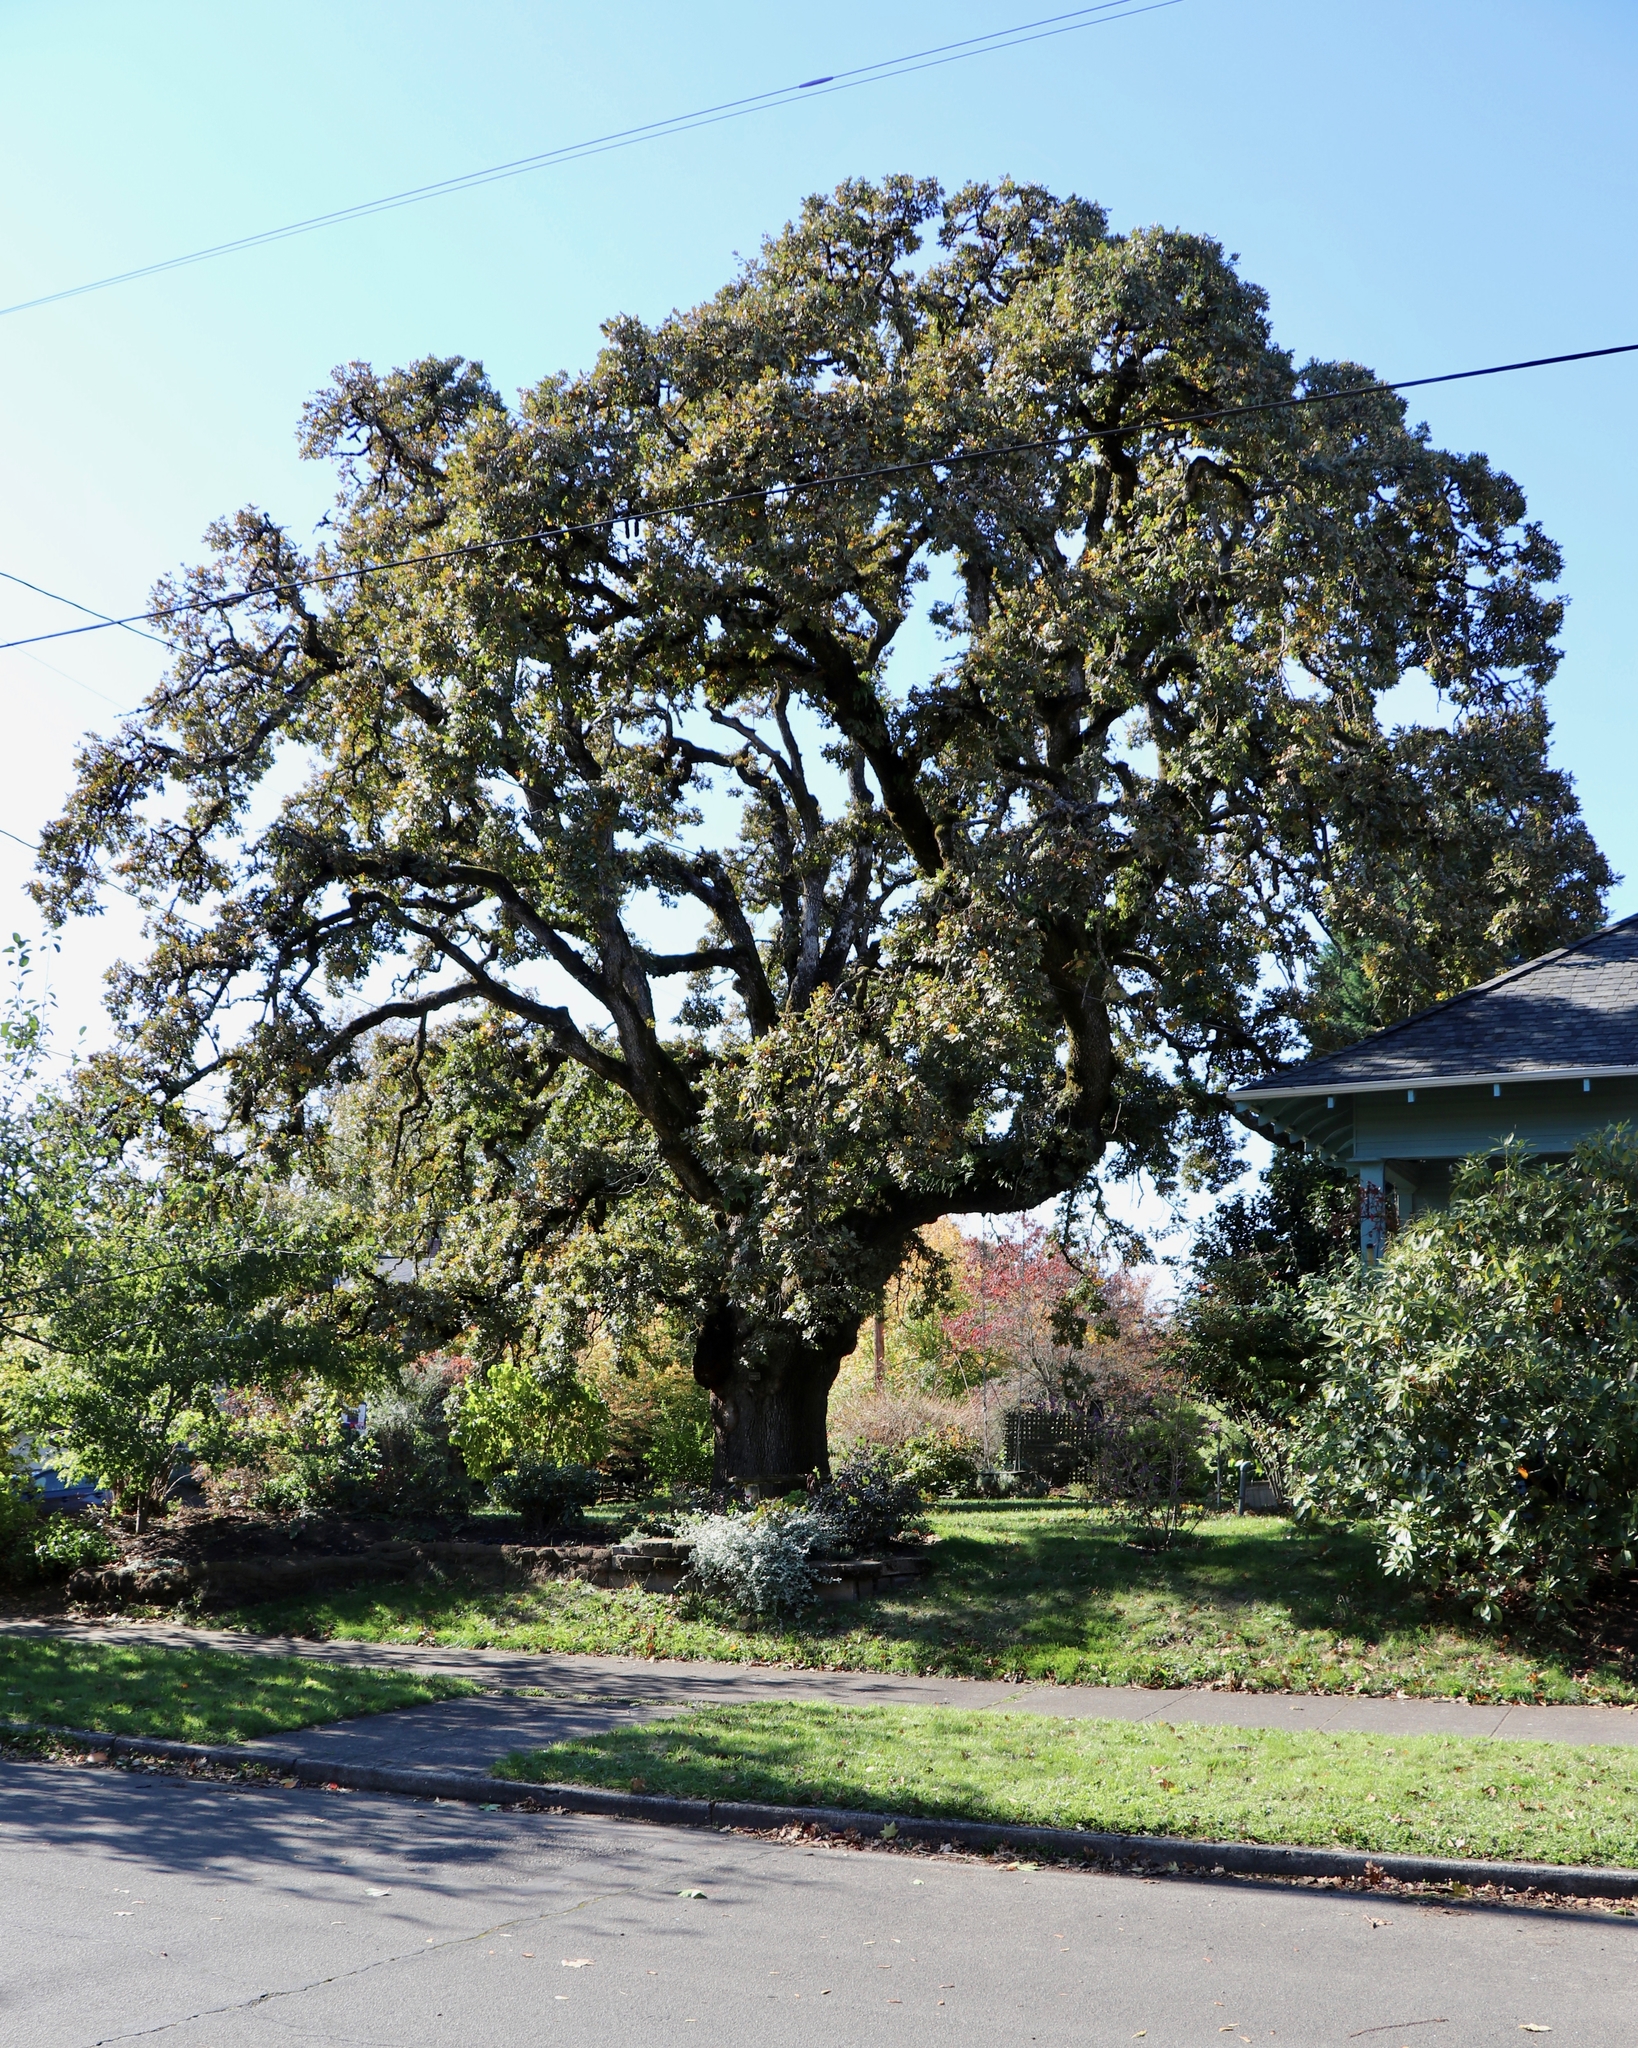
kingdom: Plantae
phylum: Tracheophyta
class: Magnoliopsida
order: Fagales
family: Fagaceae
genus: Quercus
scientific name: Quercus garryana
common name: Garry oak
